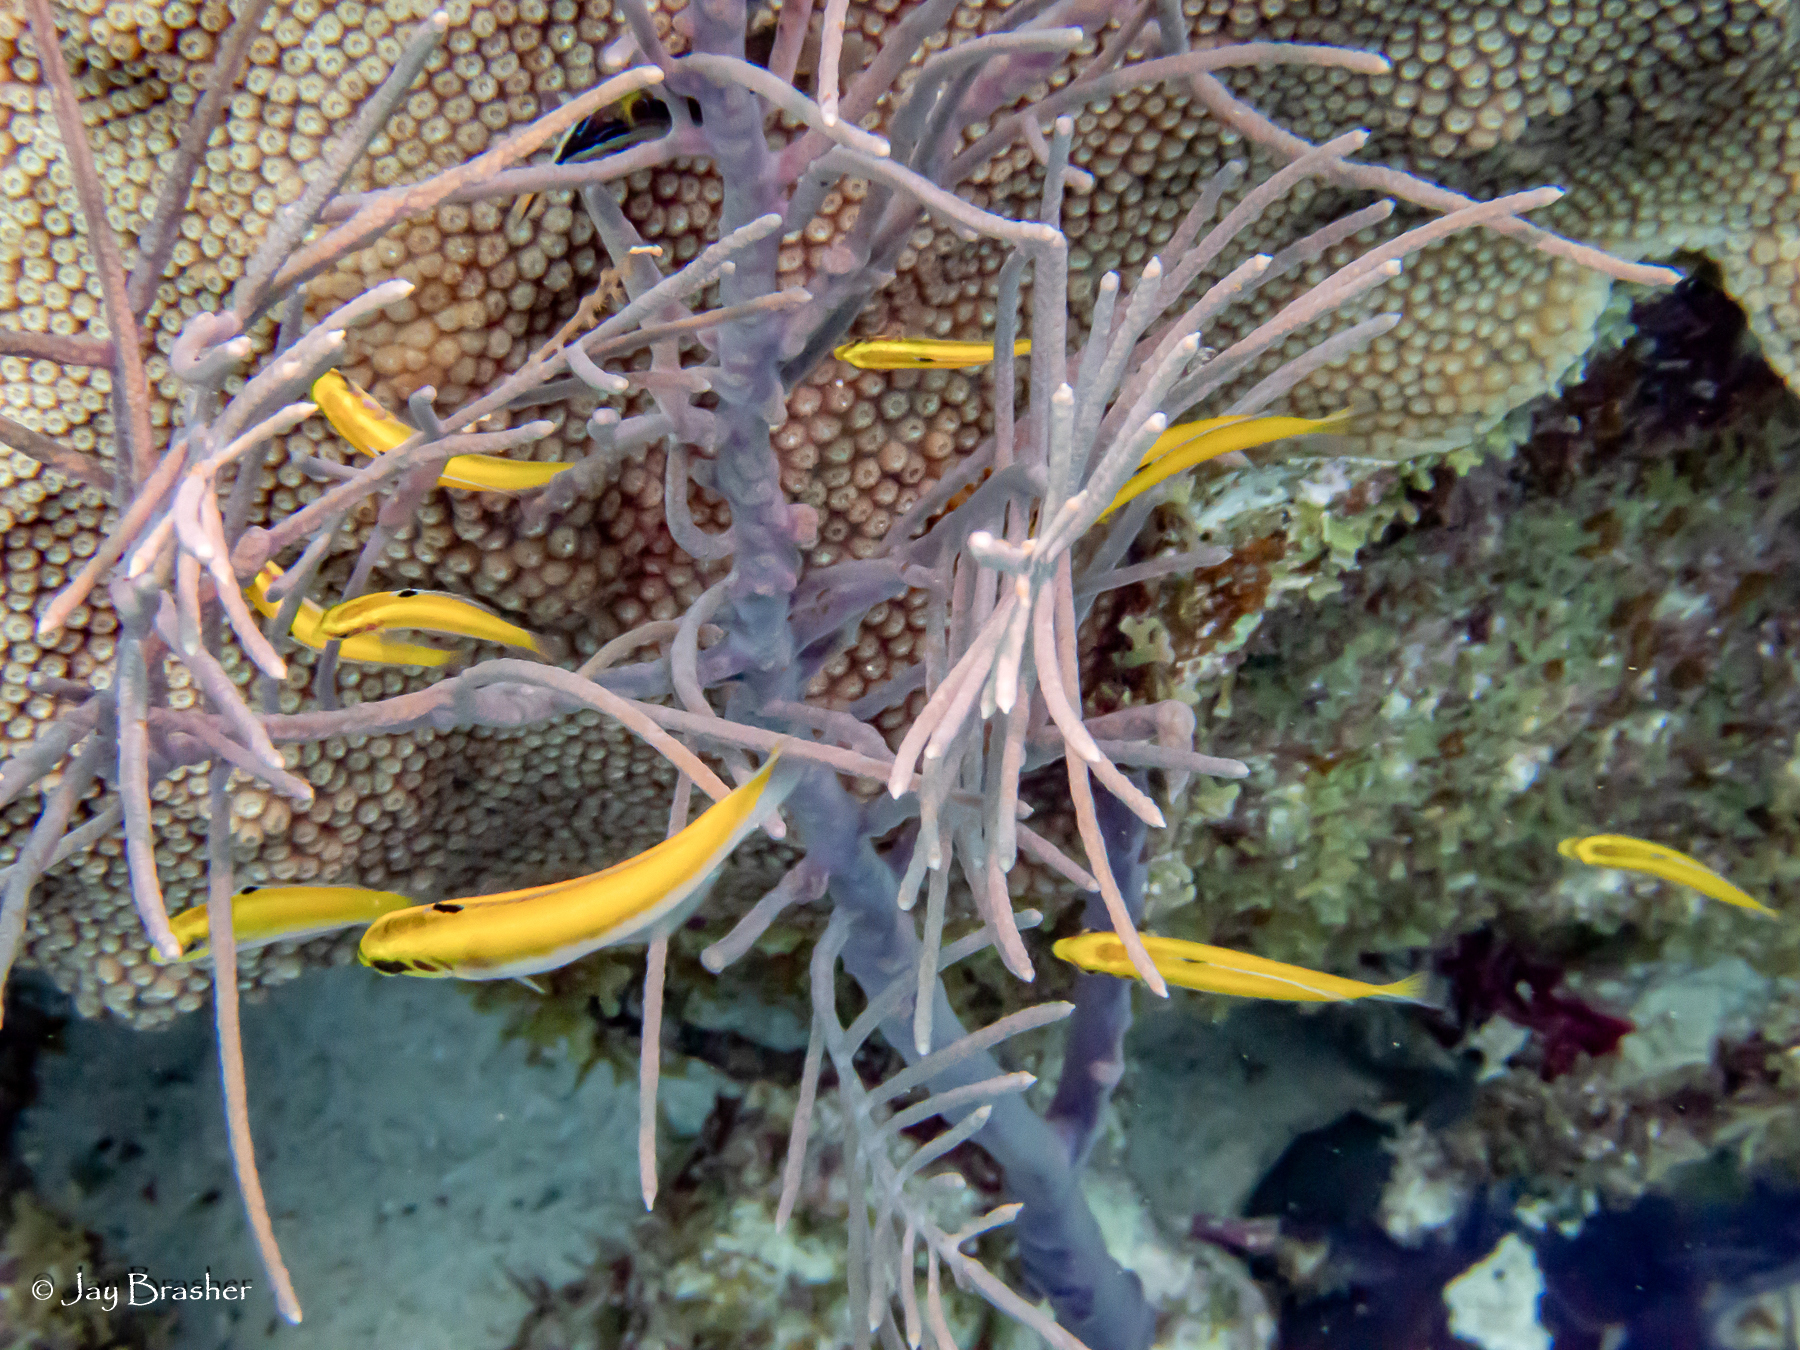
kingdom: Animalia
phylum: Chordata
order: Perciformes
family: Labridae
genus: Thalassoma
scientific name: Thalassoma bifasciatum
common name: Bluehead wrasse
